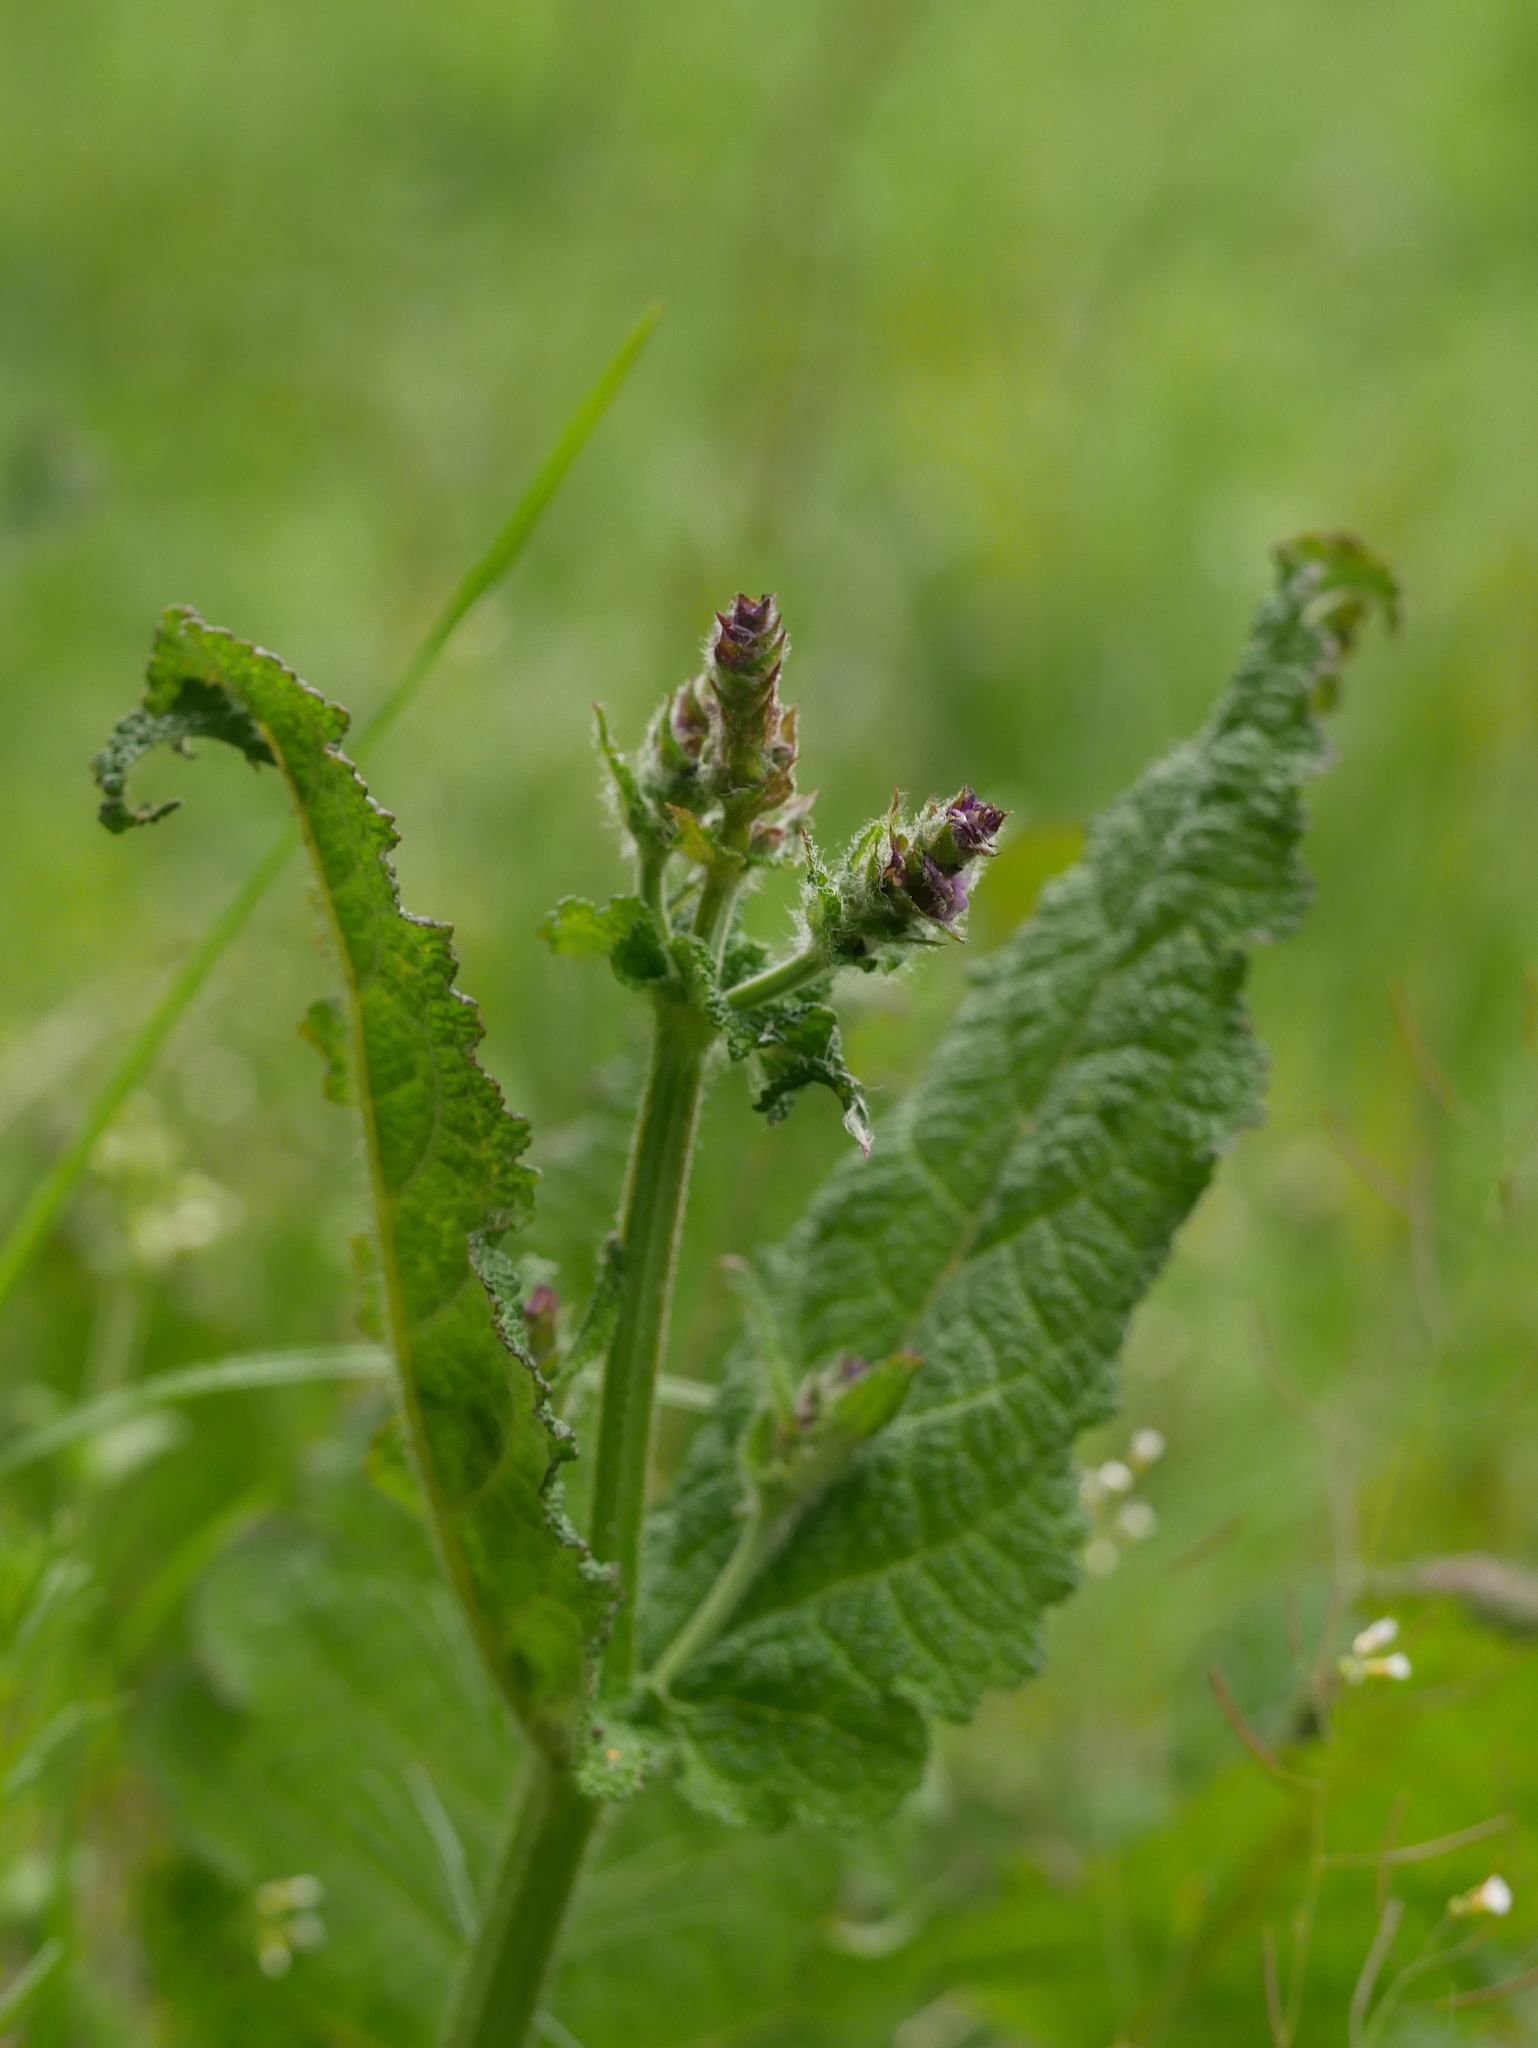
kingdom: Plantae
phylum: Tracheophyta
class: Magnoliopsida
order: Lamiales
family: Lamiaceae
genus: Salvia
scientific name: Salvia pratensis
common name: Meadow sage
